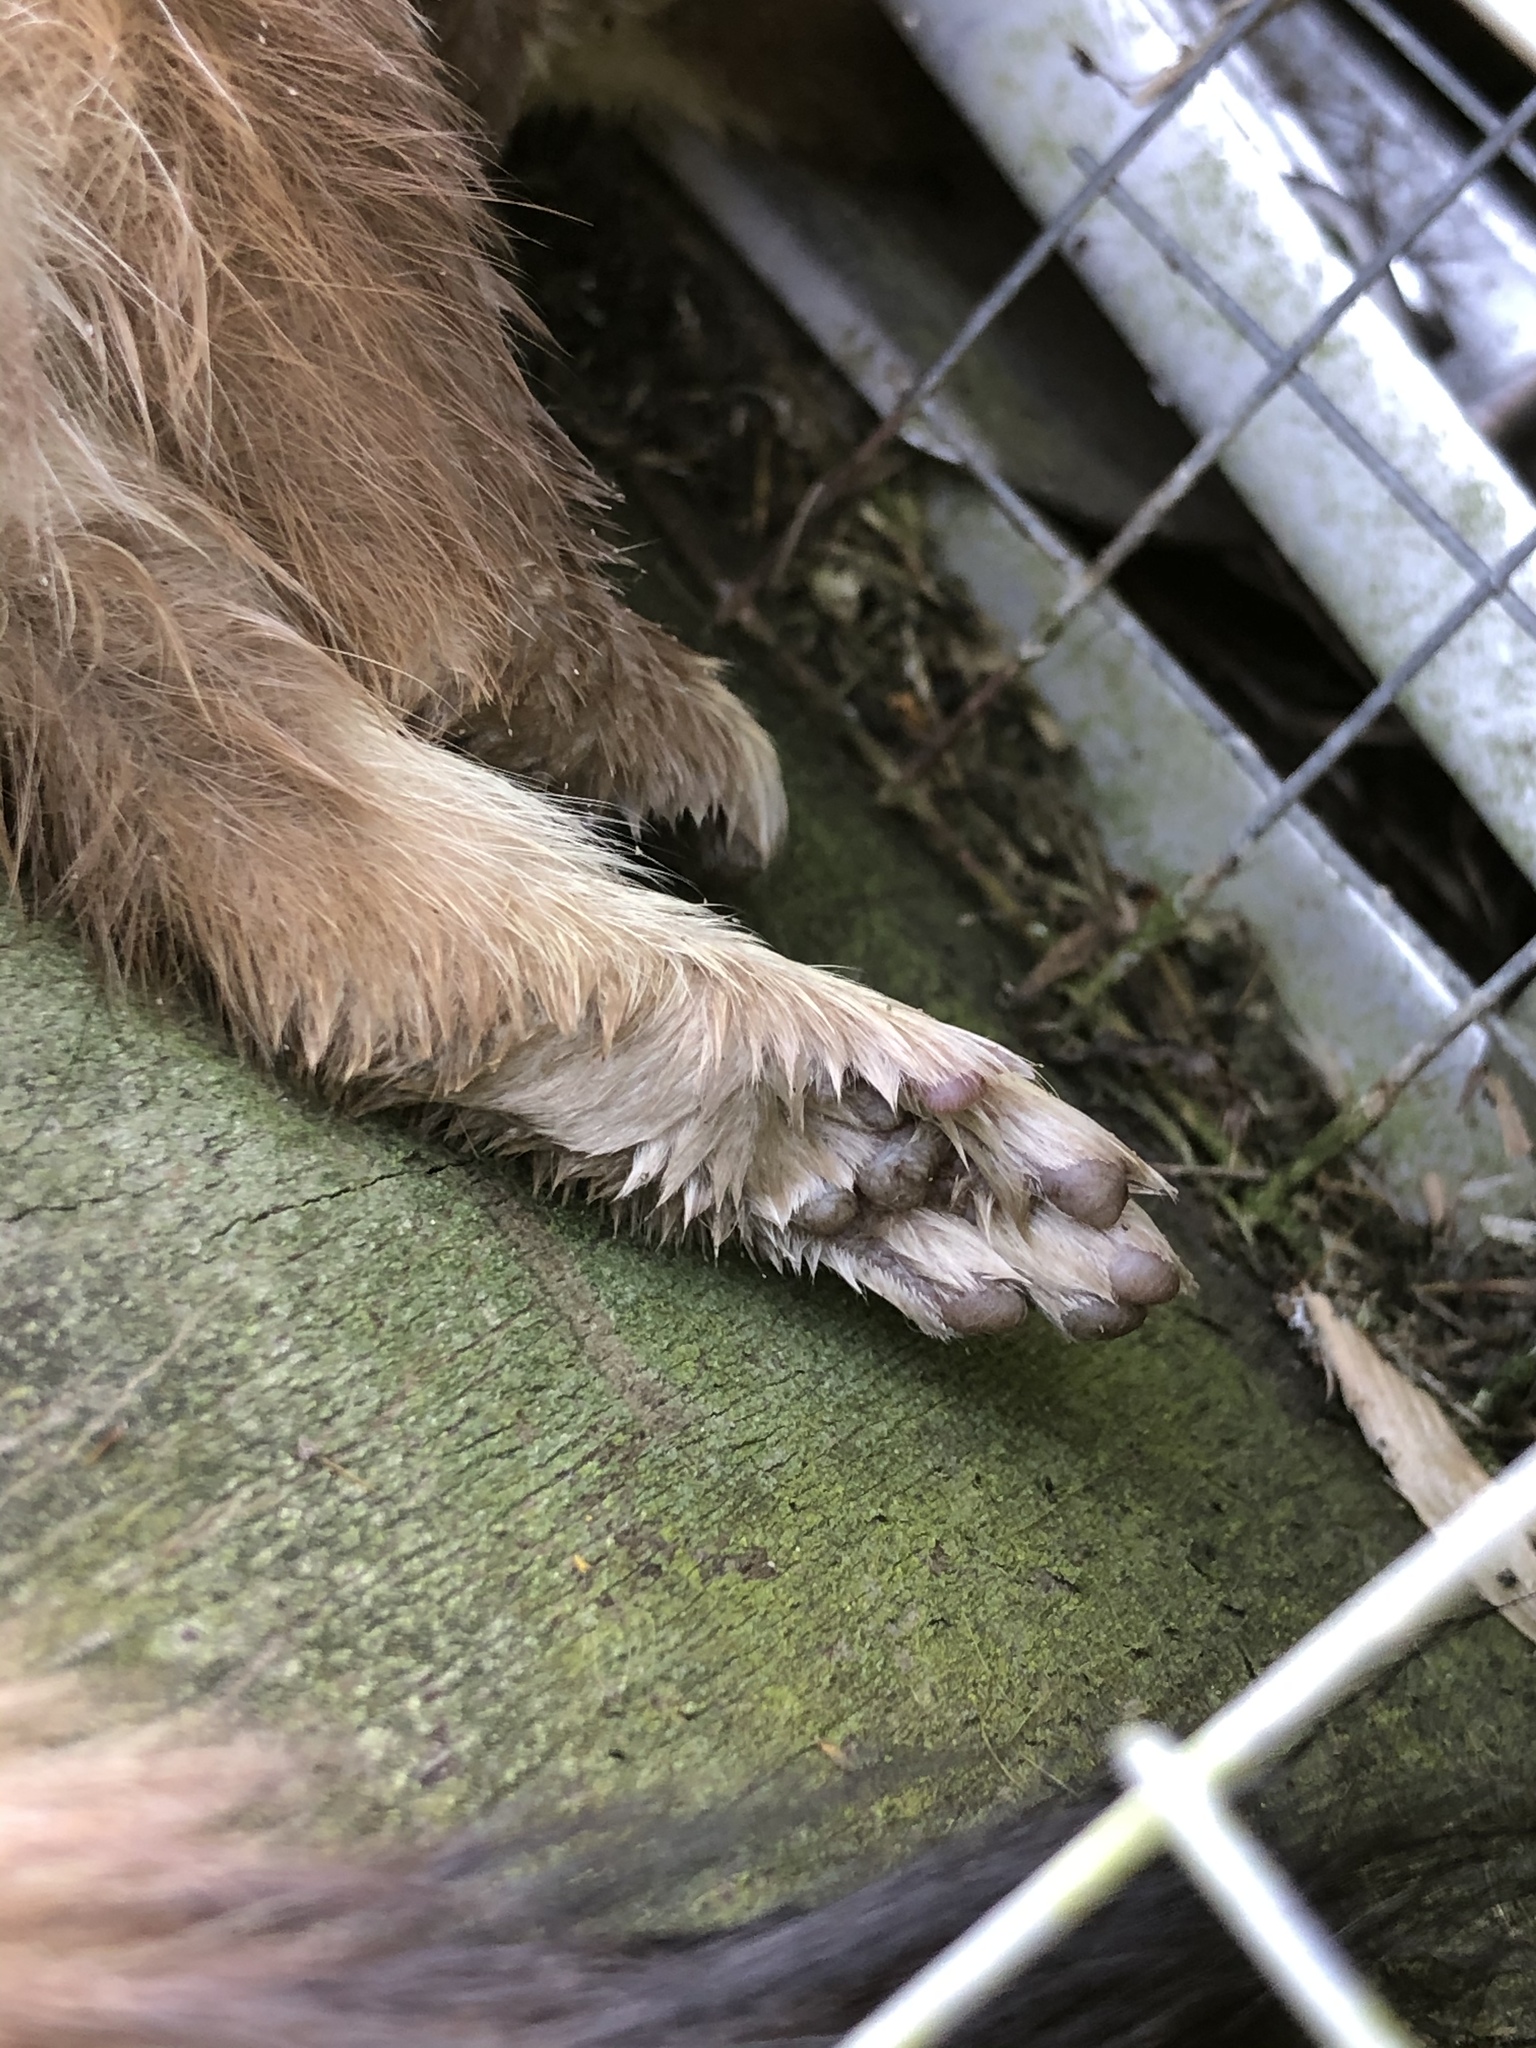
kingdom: Animalia
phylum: Chordata
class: Mammalia
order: Carnivora
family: Mustelidae
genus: Mustela
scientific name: Mustela erminea
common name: Stoat
